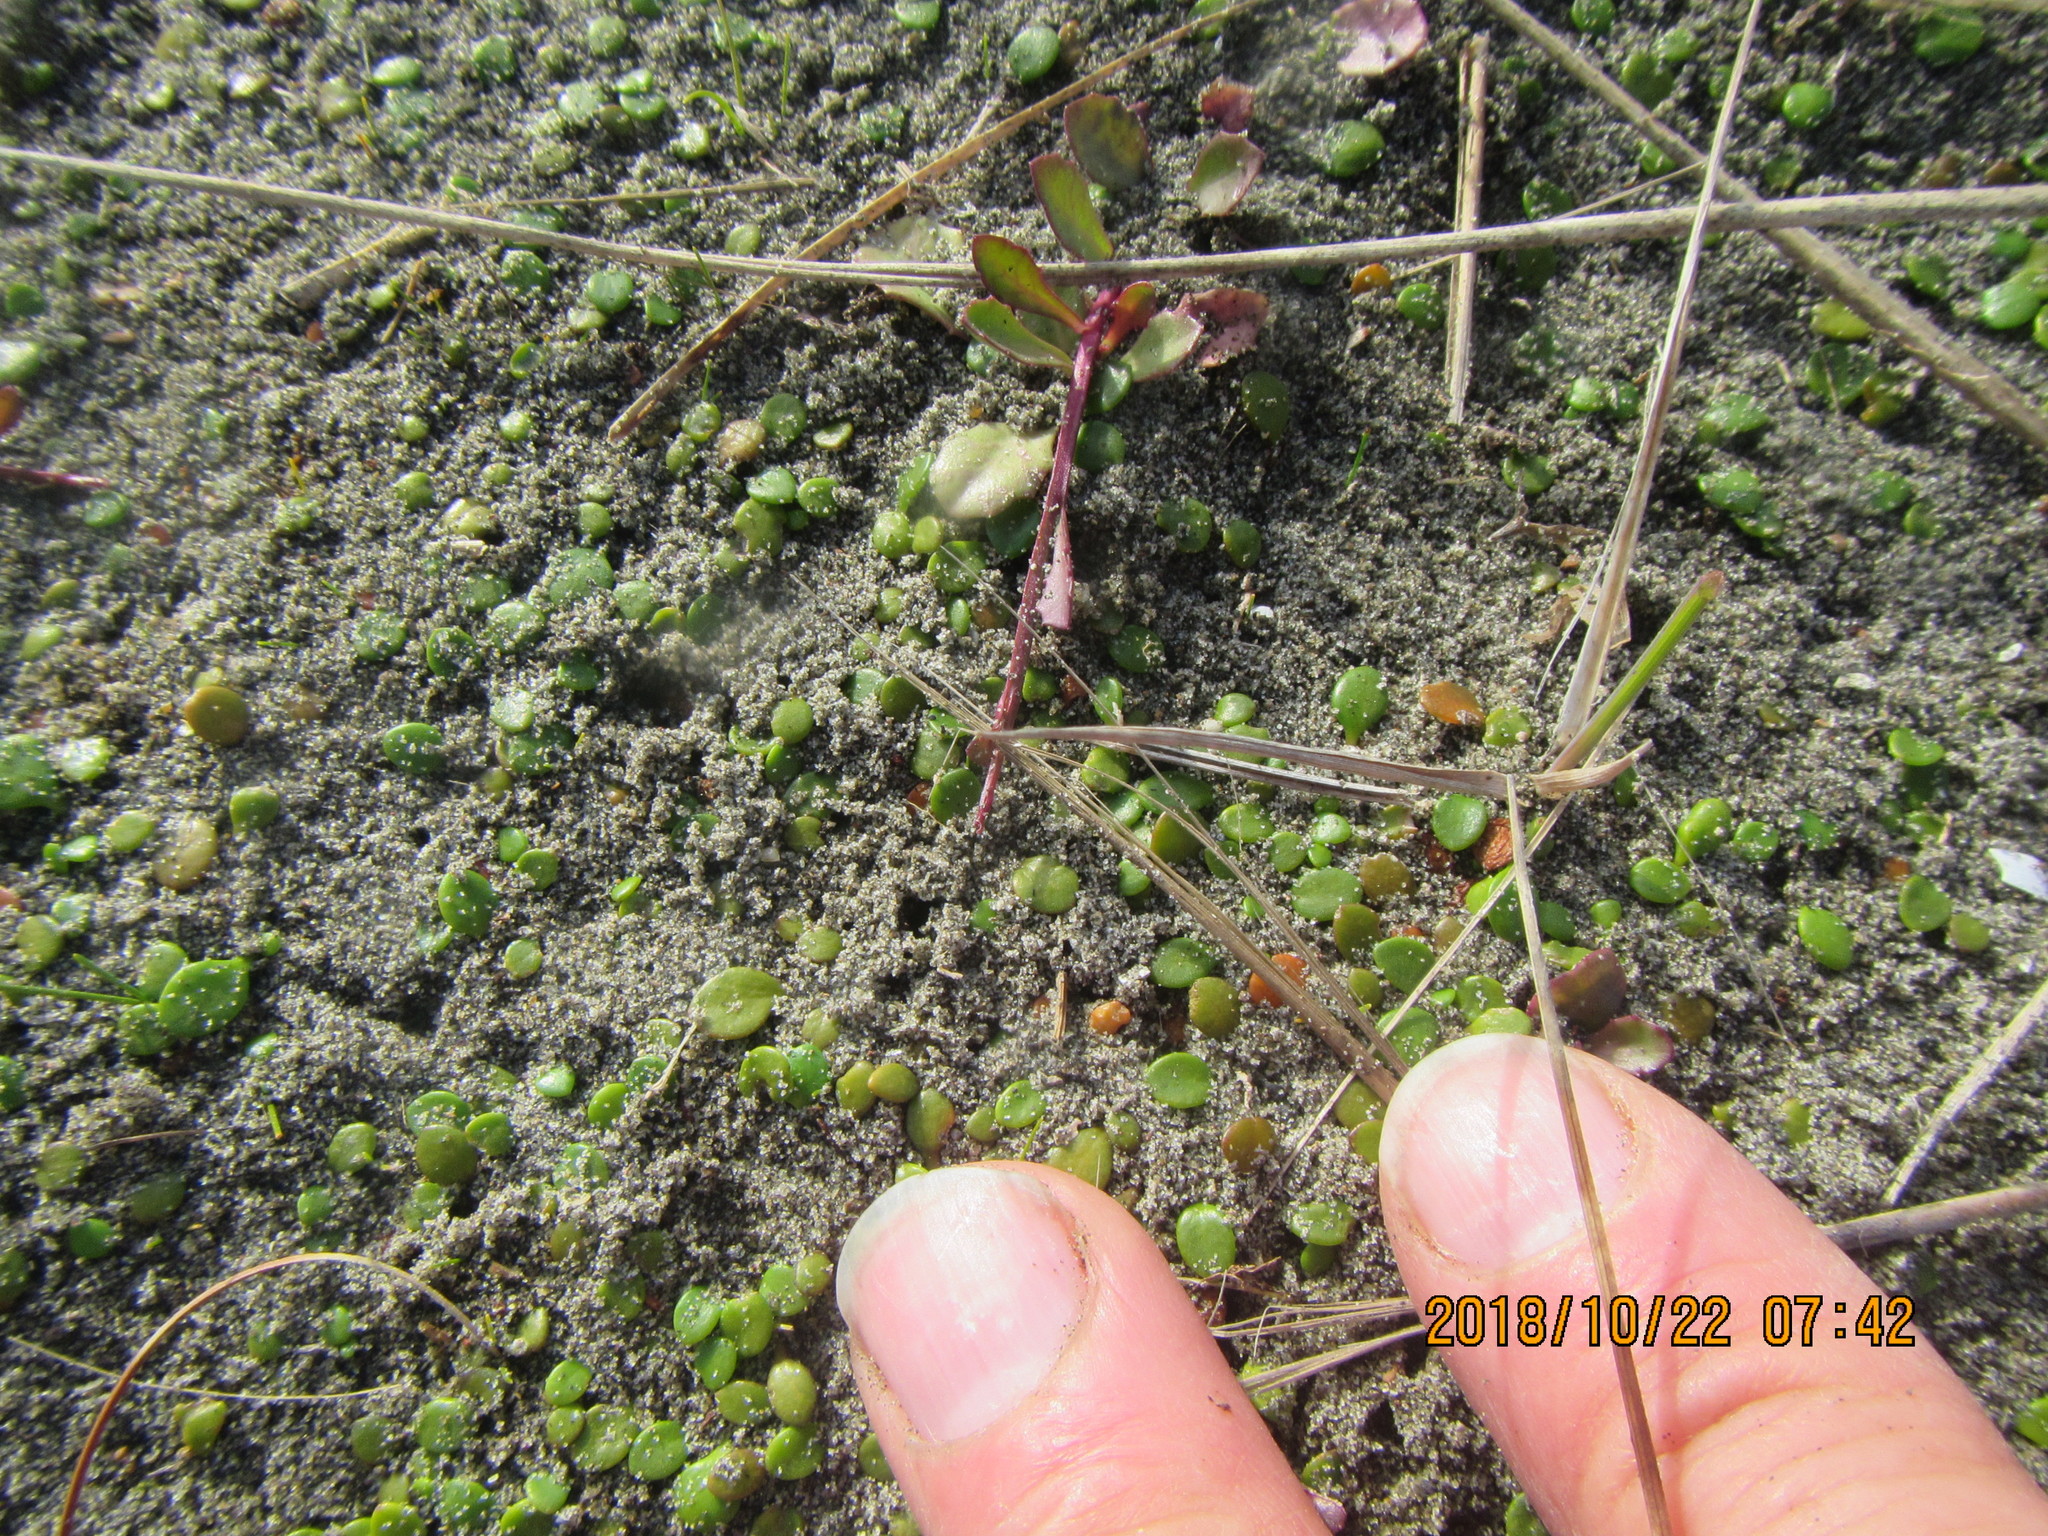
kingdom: Plantae
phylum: Tracheophyta
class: Magnoliopsida
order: Asterales
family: Goodeniaceae
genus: Goodenia
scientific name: Goodenia heenanii
